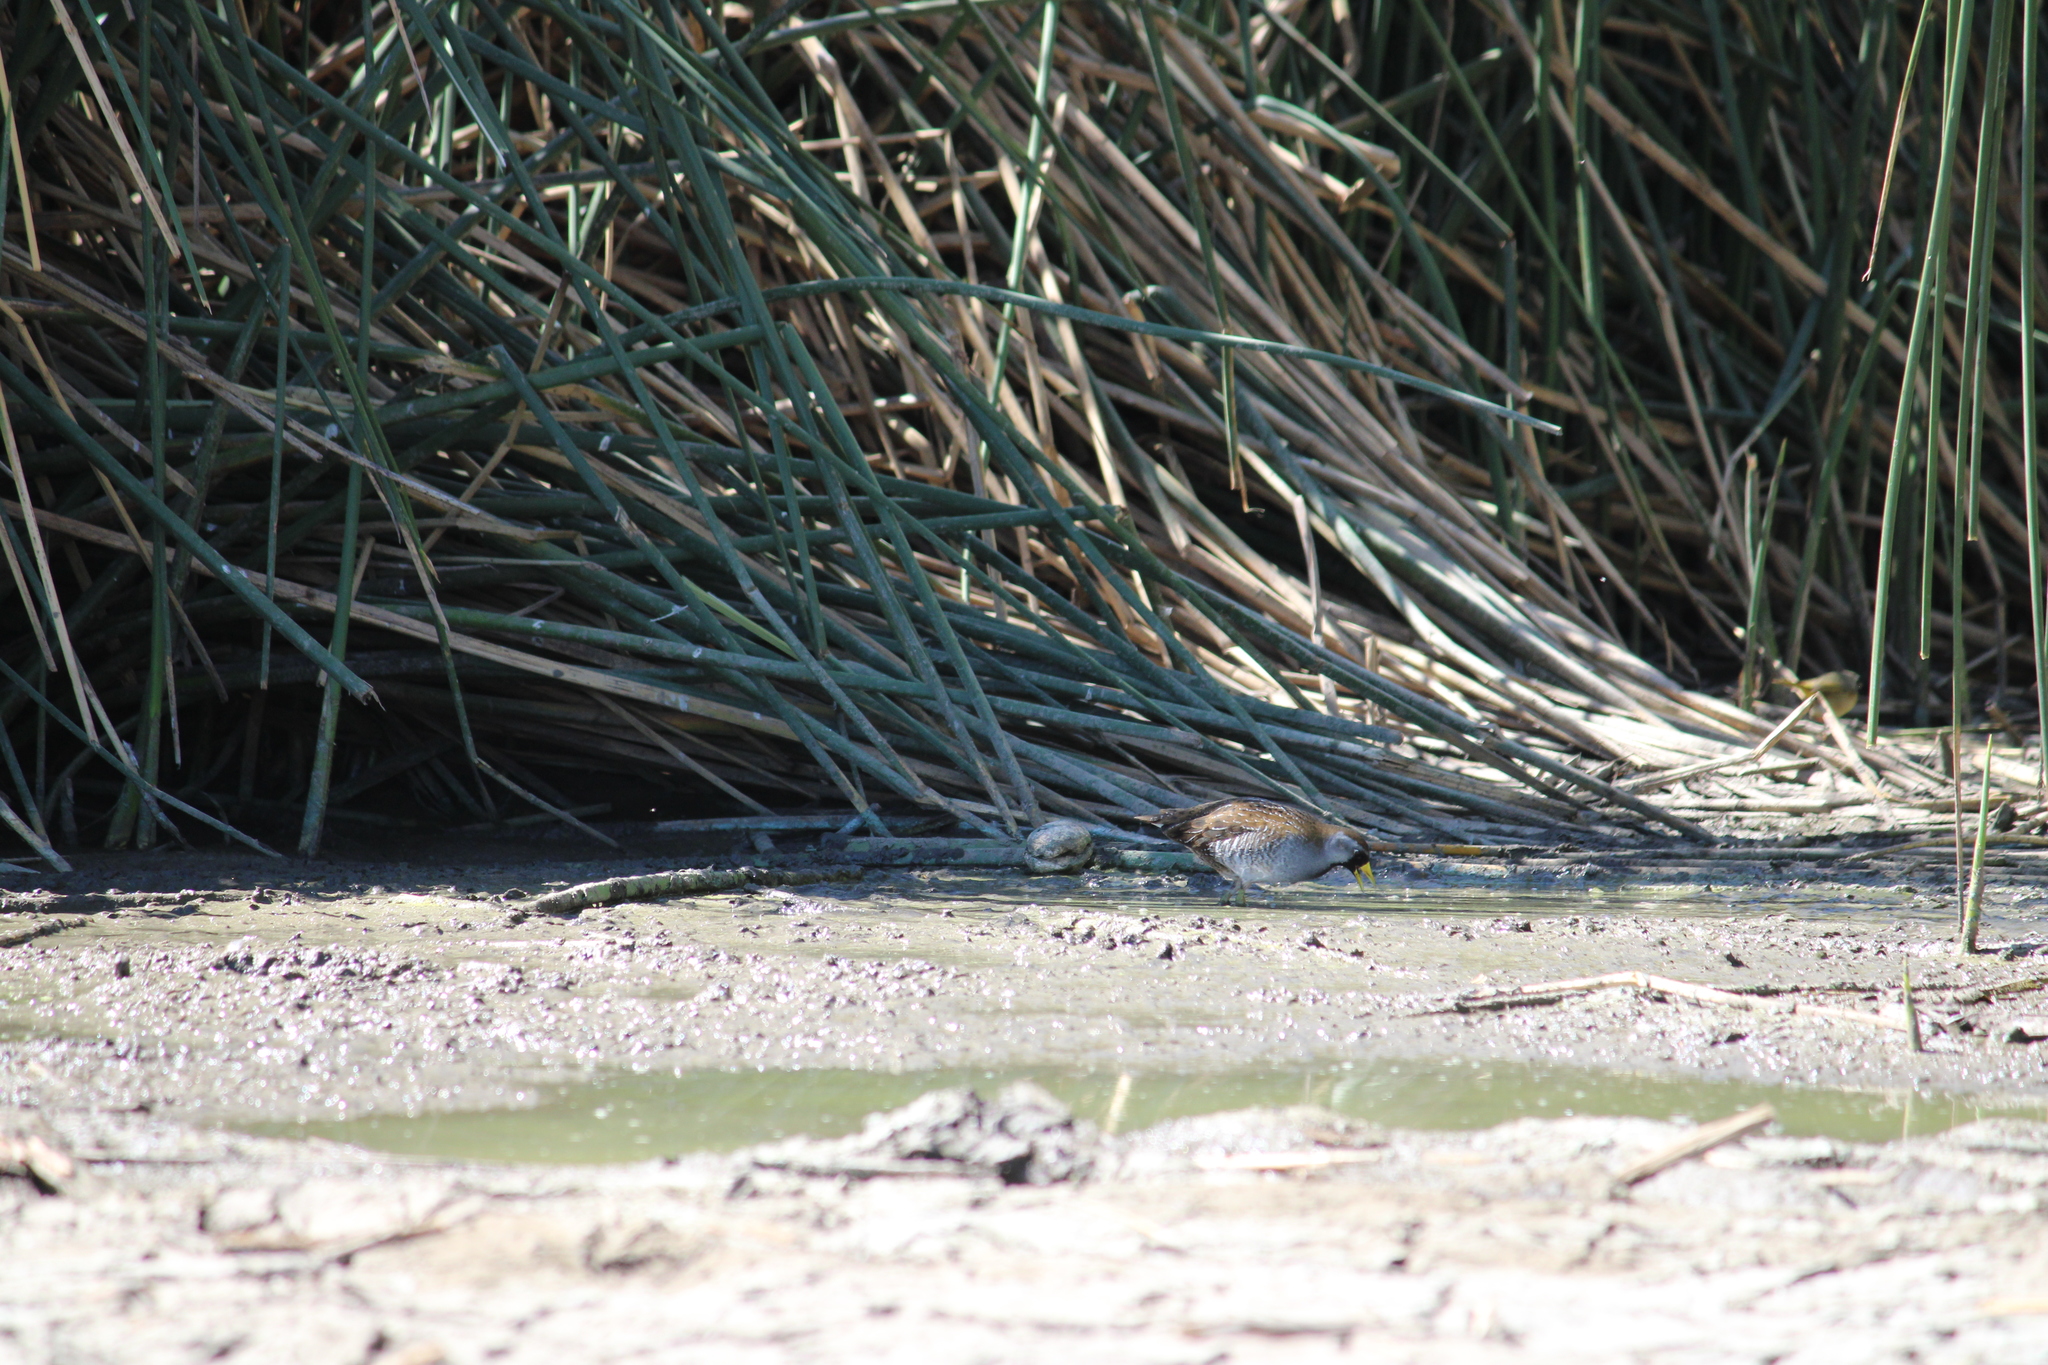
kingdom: Animalia
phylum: Chordata
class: Aves
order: Gruiformes
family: Rallidae
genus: Porzana
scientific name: Porzana carolina
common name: Sora
